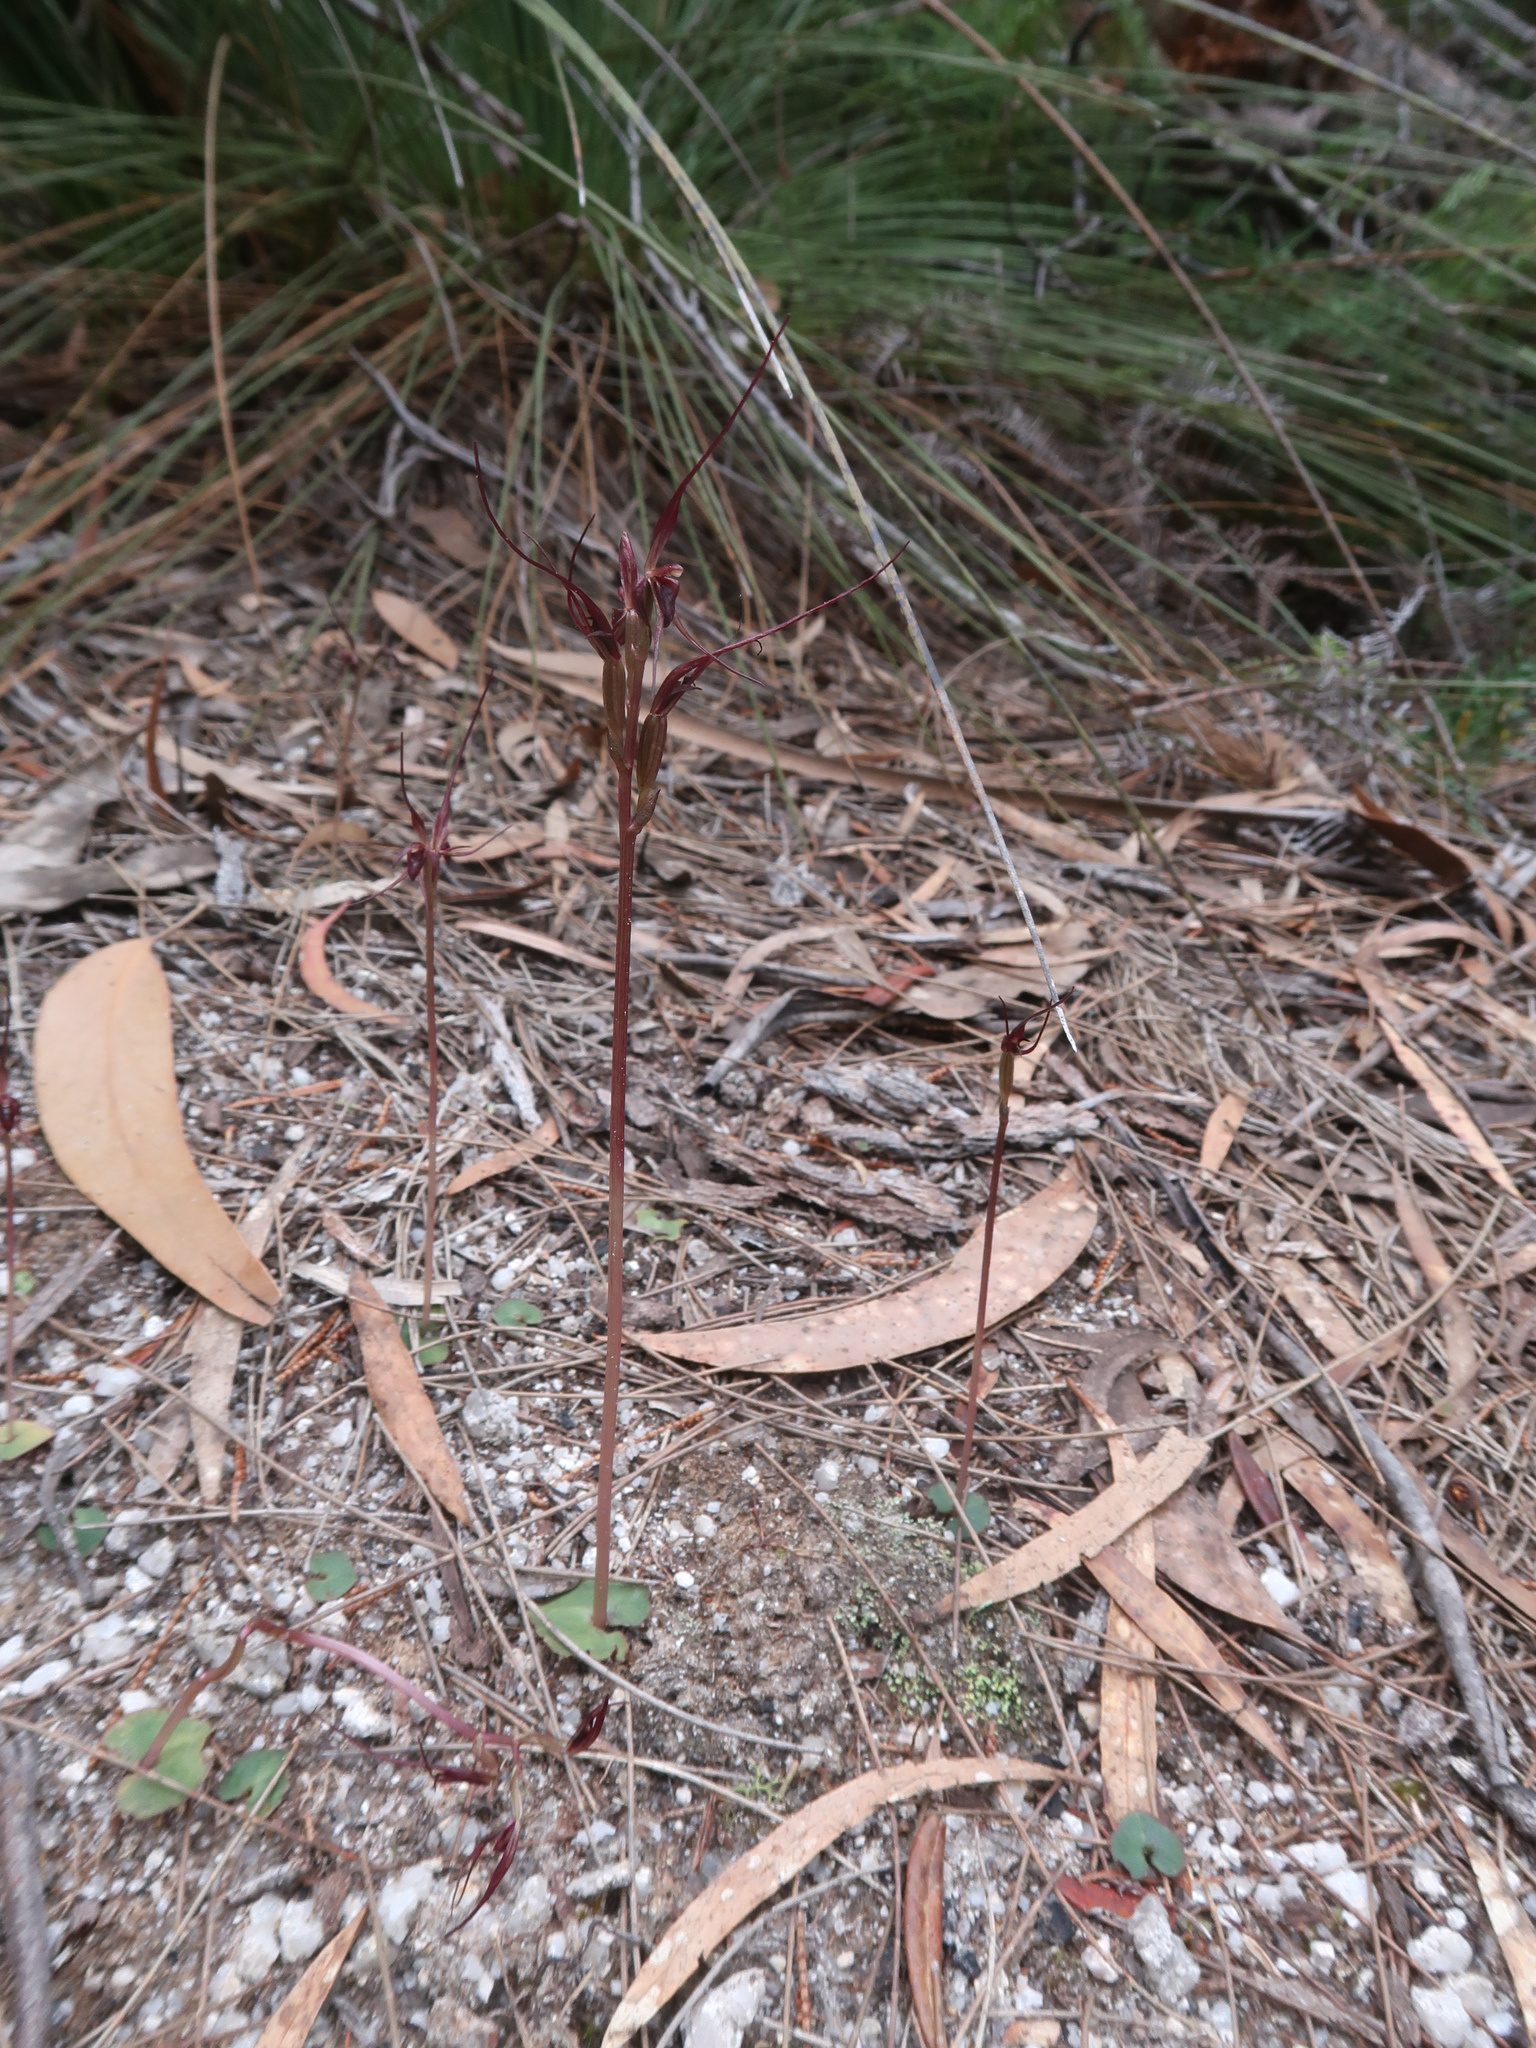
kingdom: Plantae
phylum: Tracheophyta
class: Liliopsida
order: Asparagales
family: Orchidaceae
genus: Acianthus
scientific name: Acianthus caudatus
